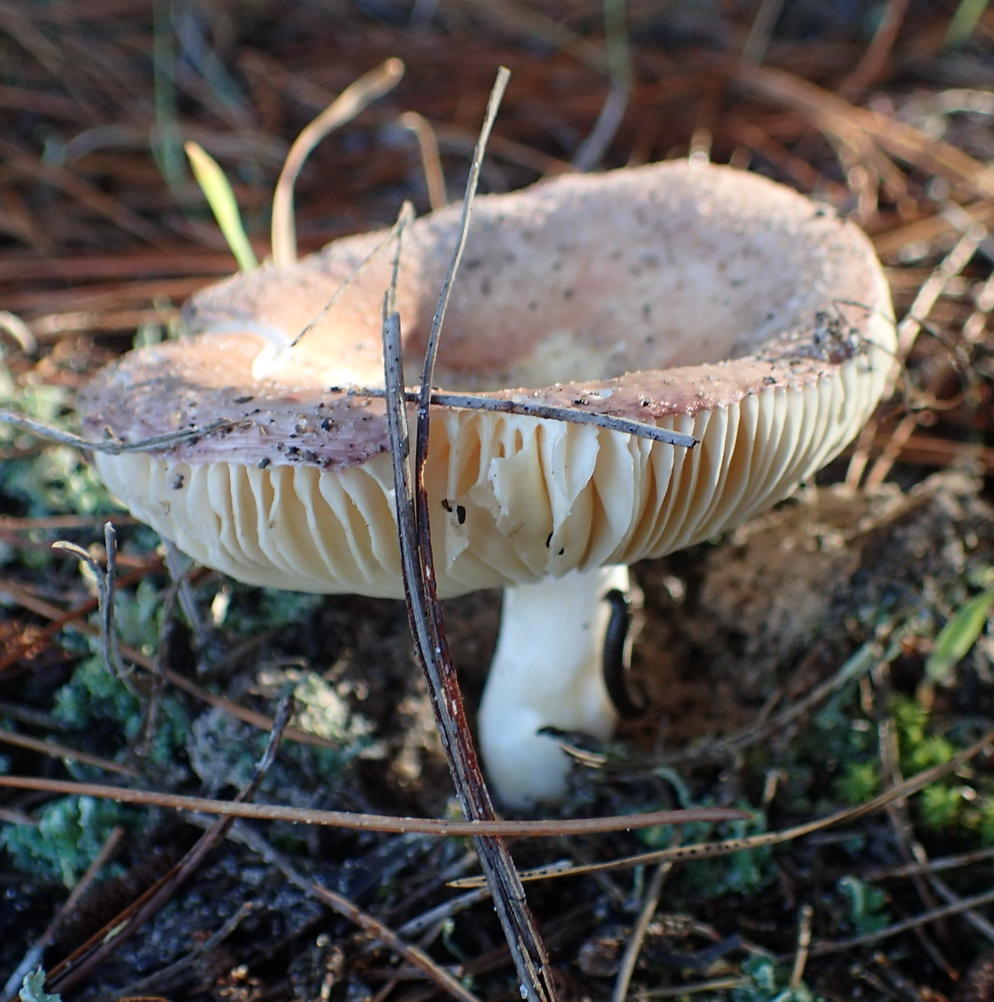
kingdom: Fungi
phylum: Basidiomycota
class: Agaricomycetes
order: Russulales
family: Russulaceae
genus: Russula
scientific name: Russula sardonia
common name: Primrose brittlegill
